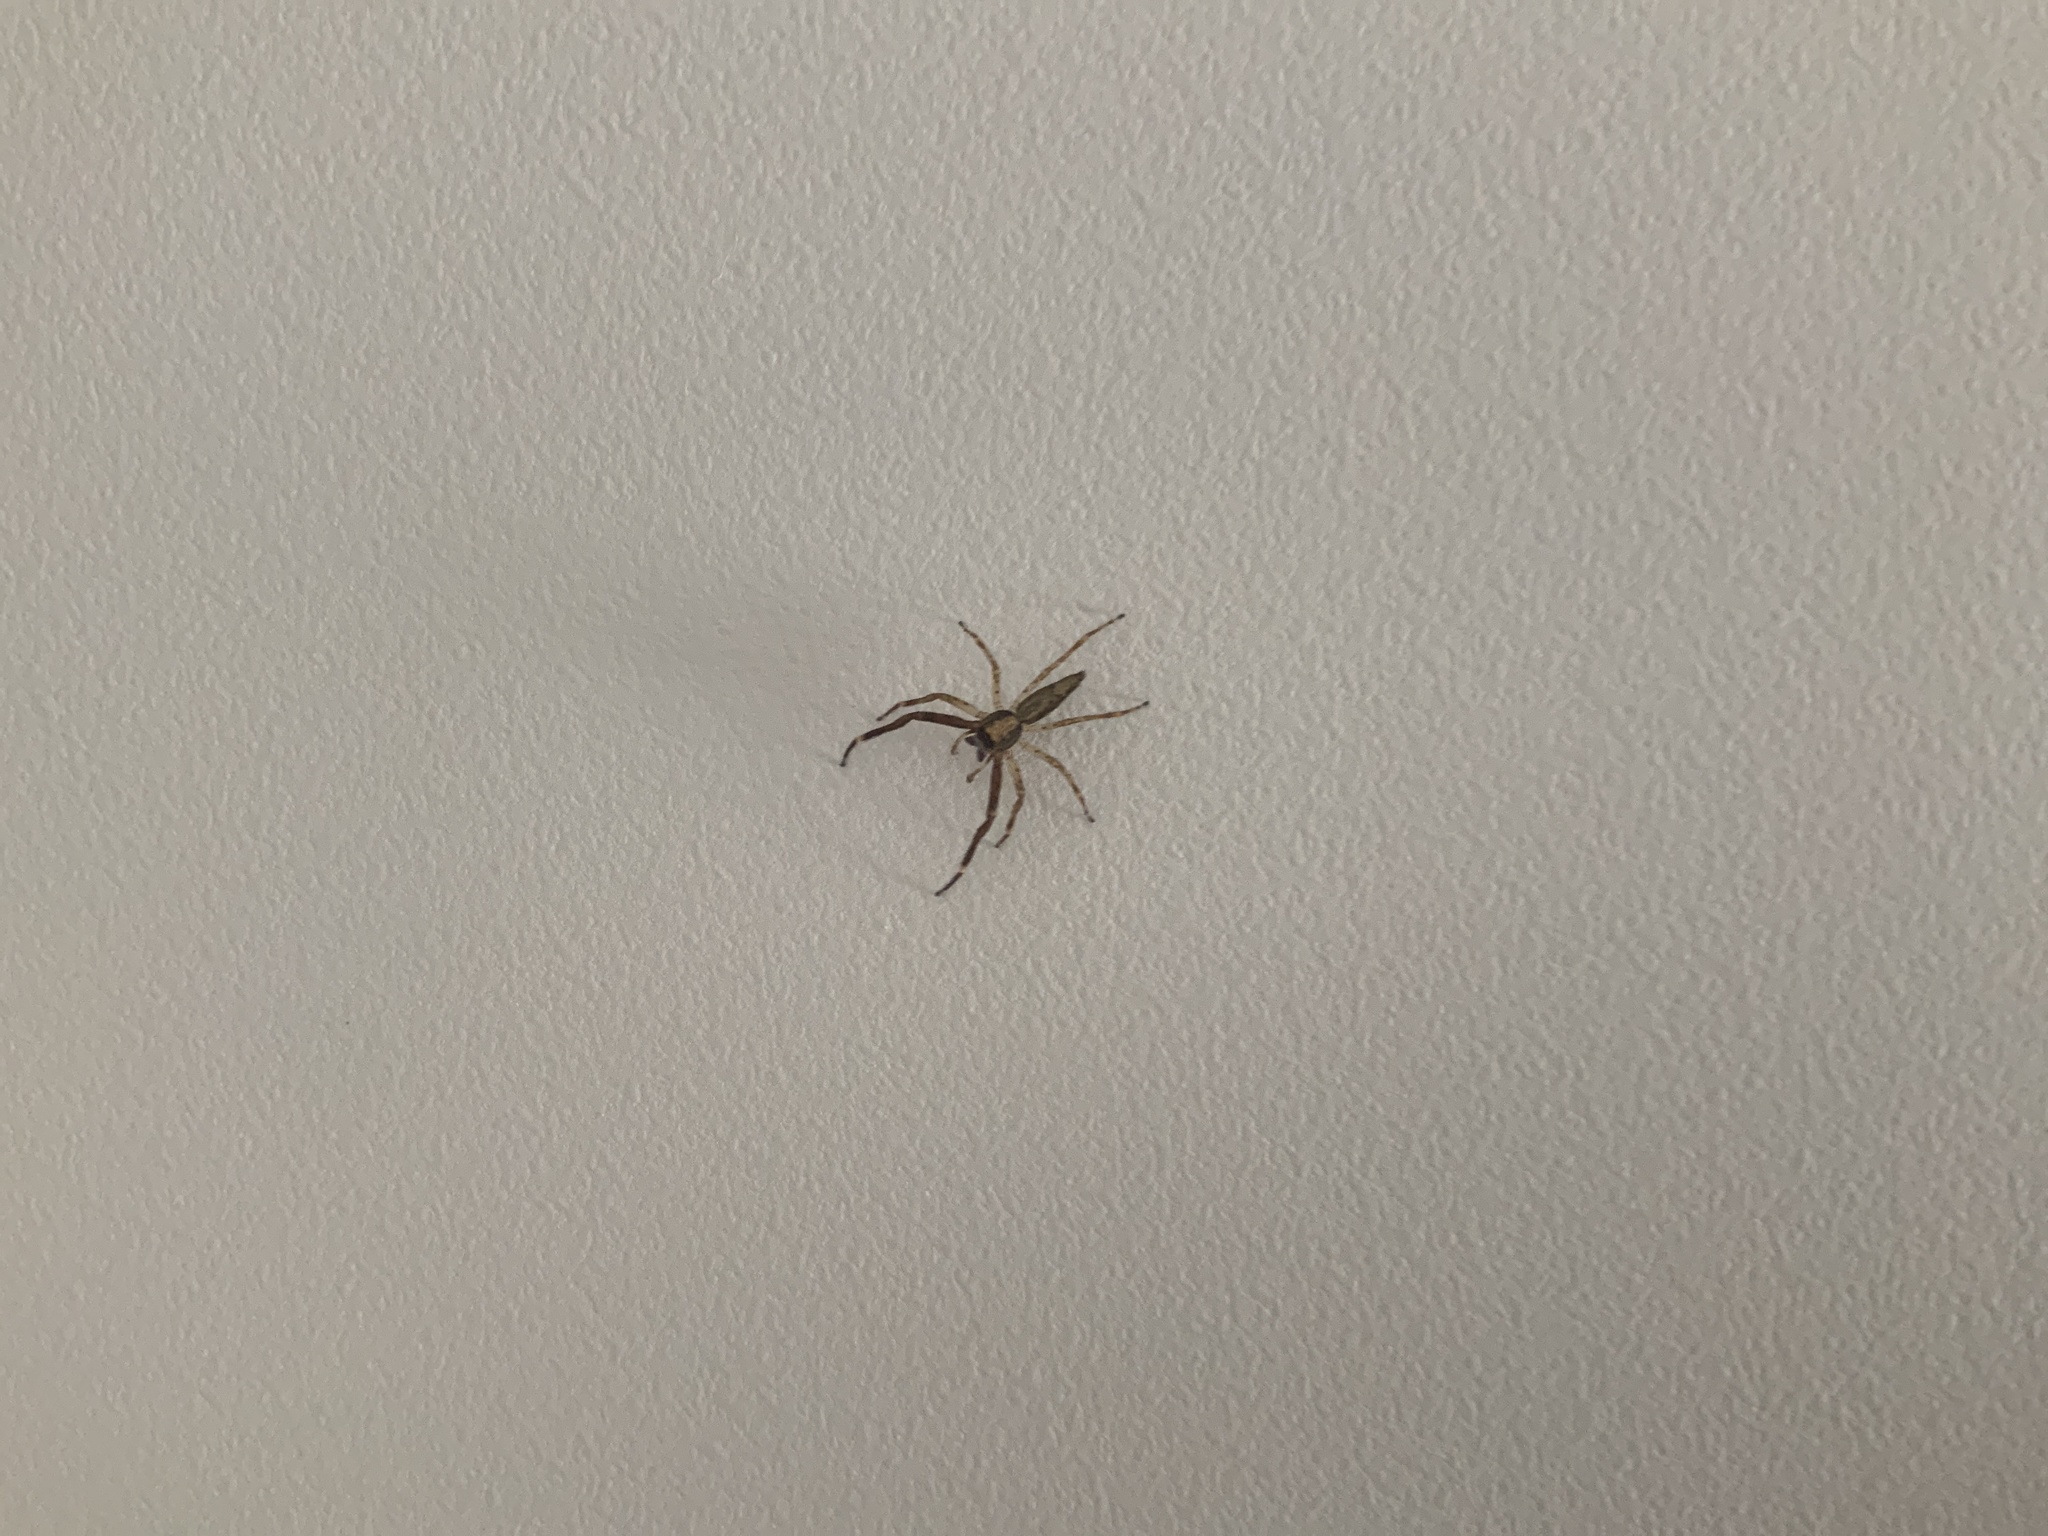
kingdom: Animalia
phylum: Arthropoda
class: Arachnida
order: Araneae
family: Salticidae
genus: Helpis
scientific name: Helpis minitabunda
